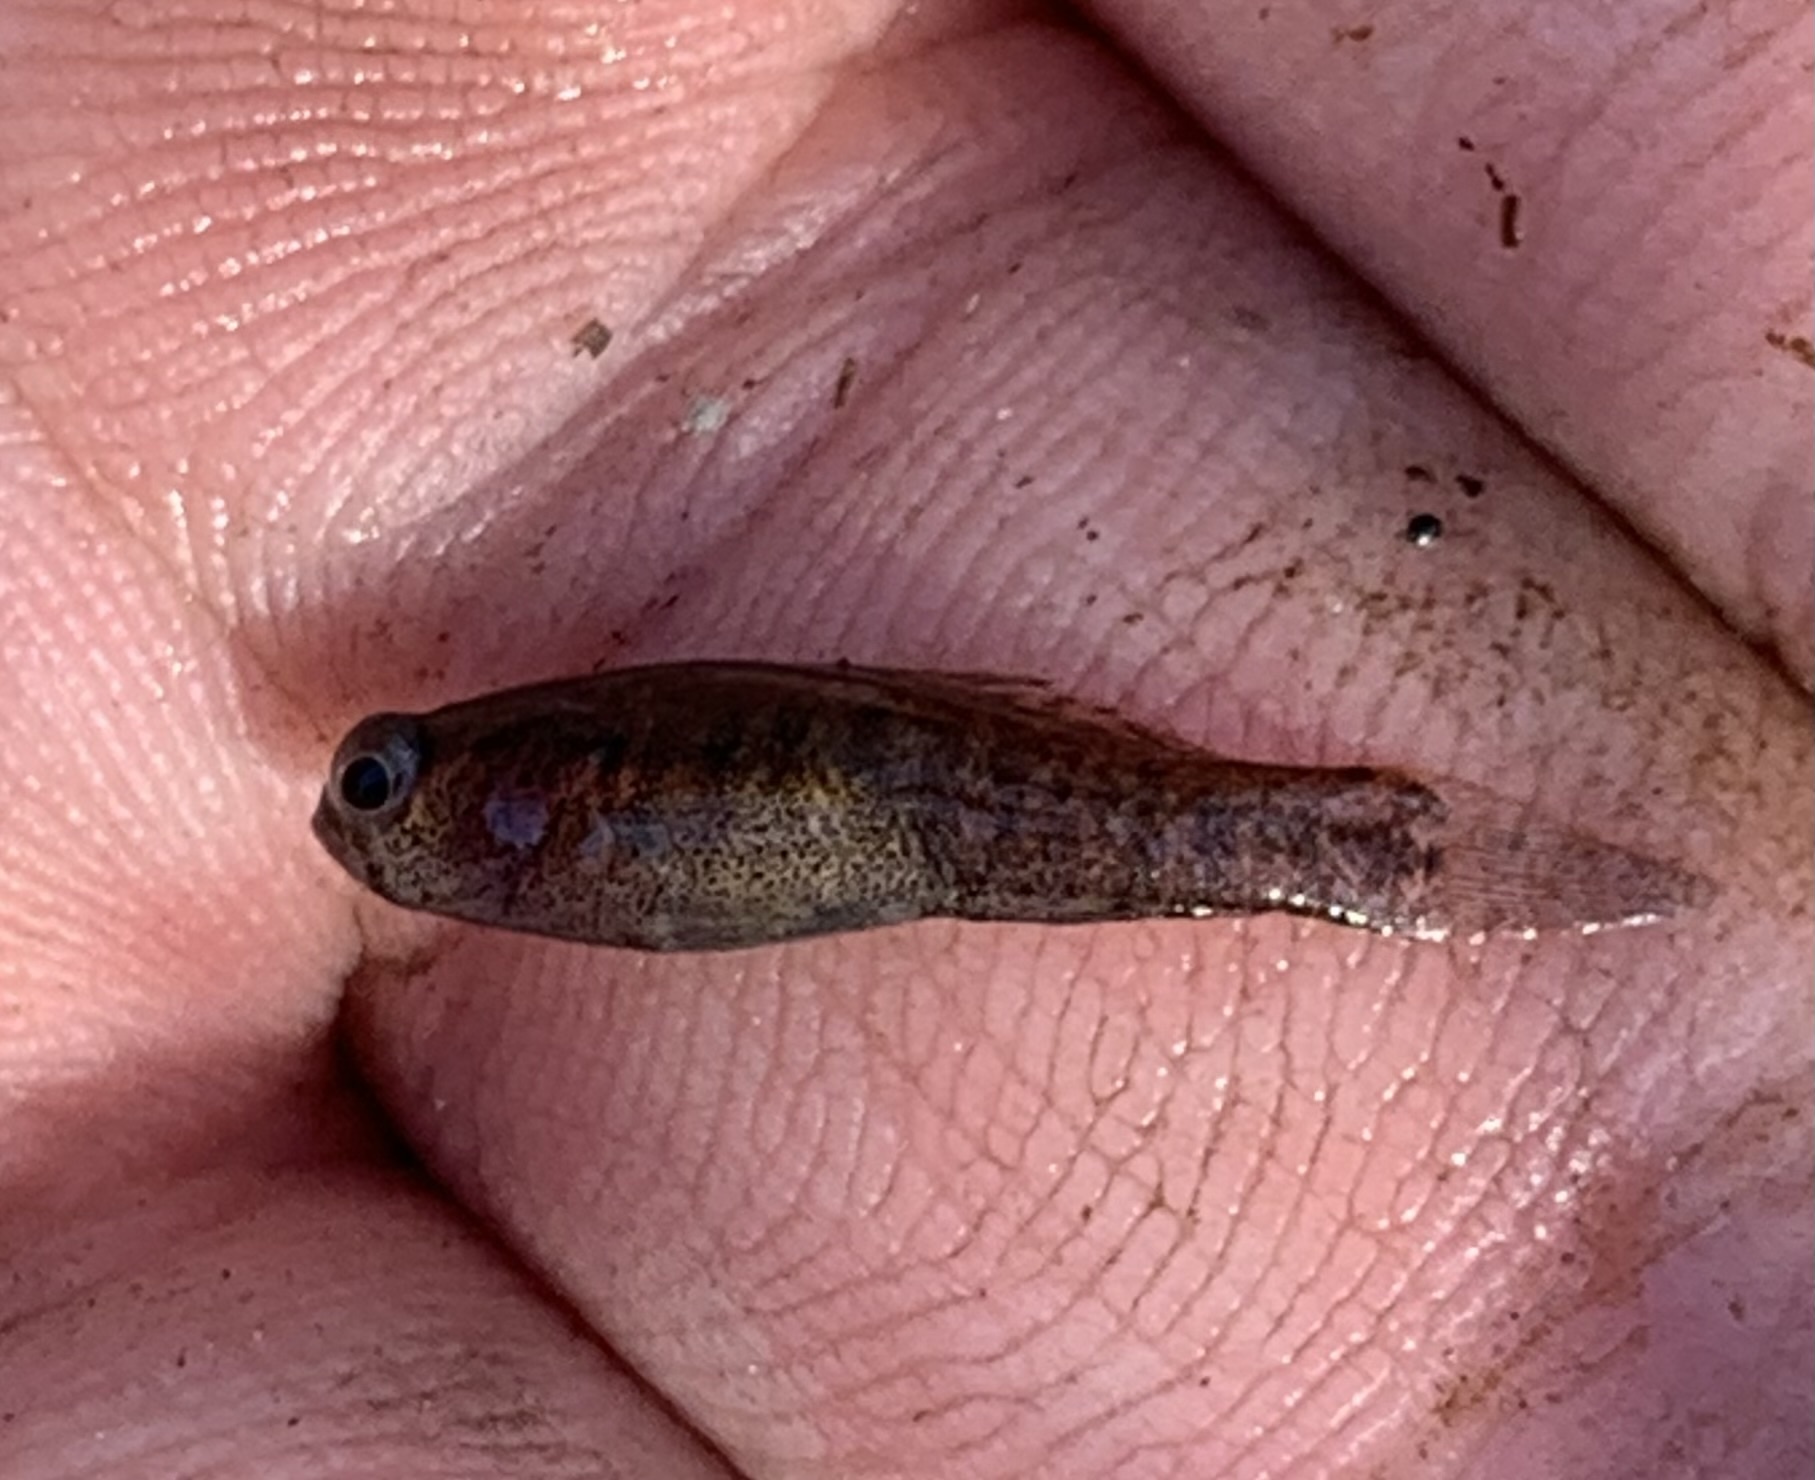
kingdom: Animalia
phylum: Chordata
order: Perciformes
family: Elassomatidae
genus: Elassoma
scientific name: Elassoma zonatum
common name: Banded pygmy sunfish
